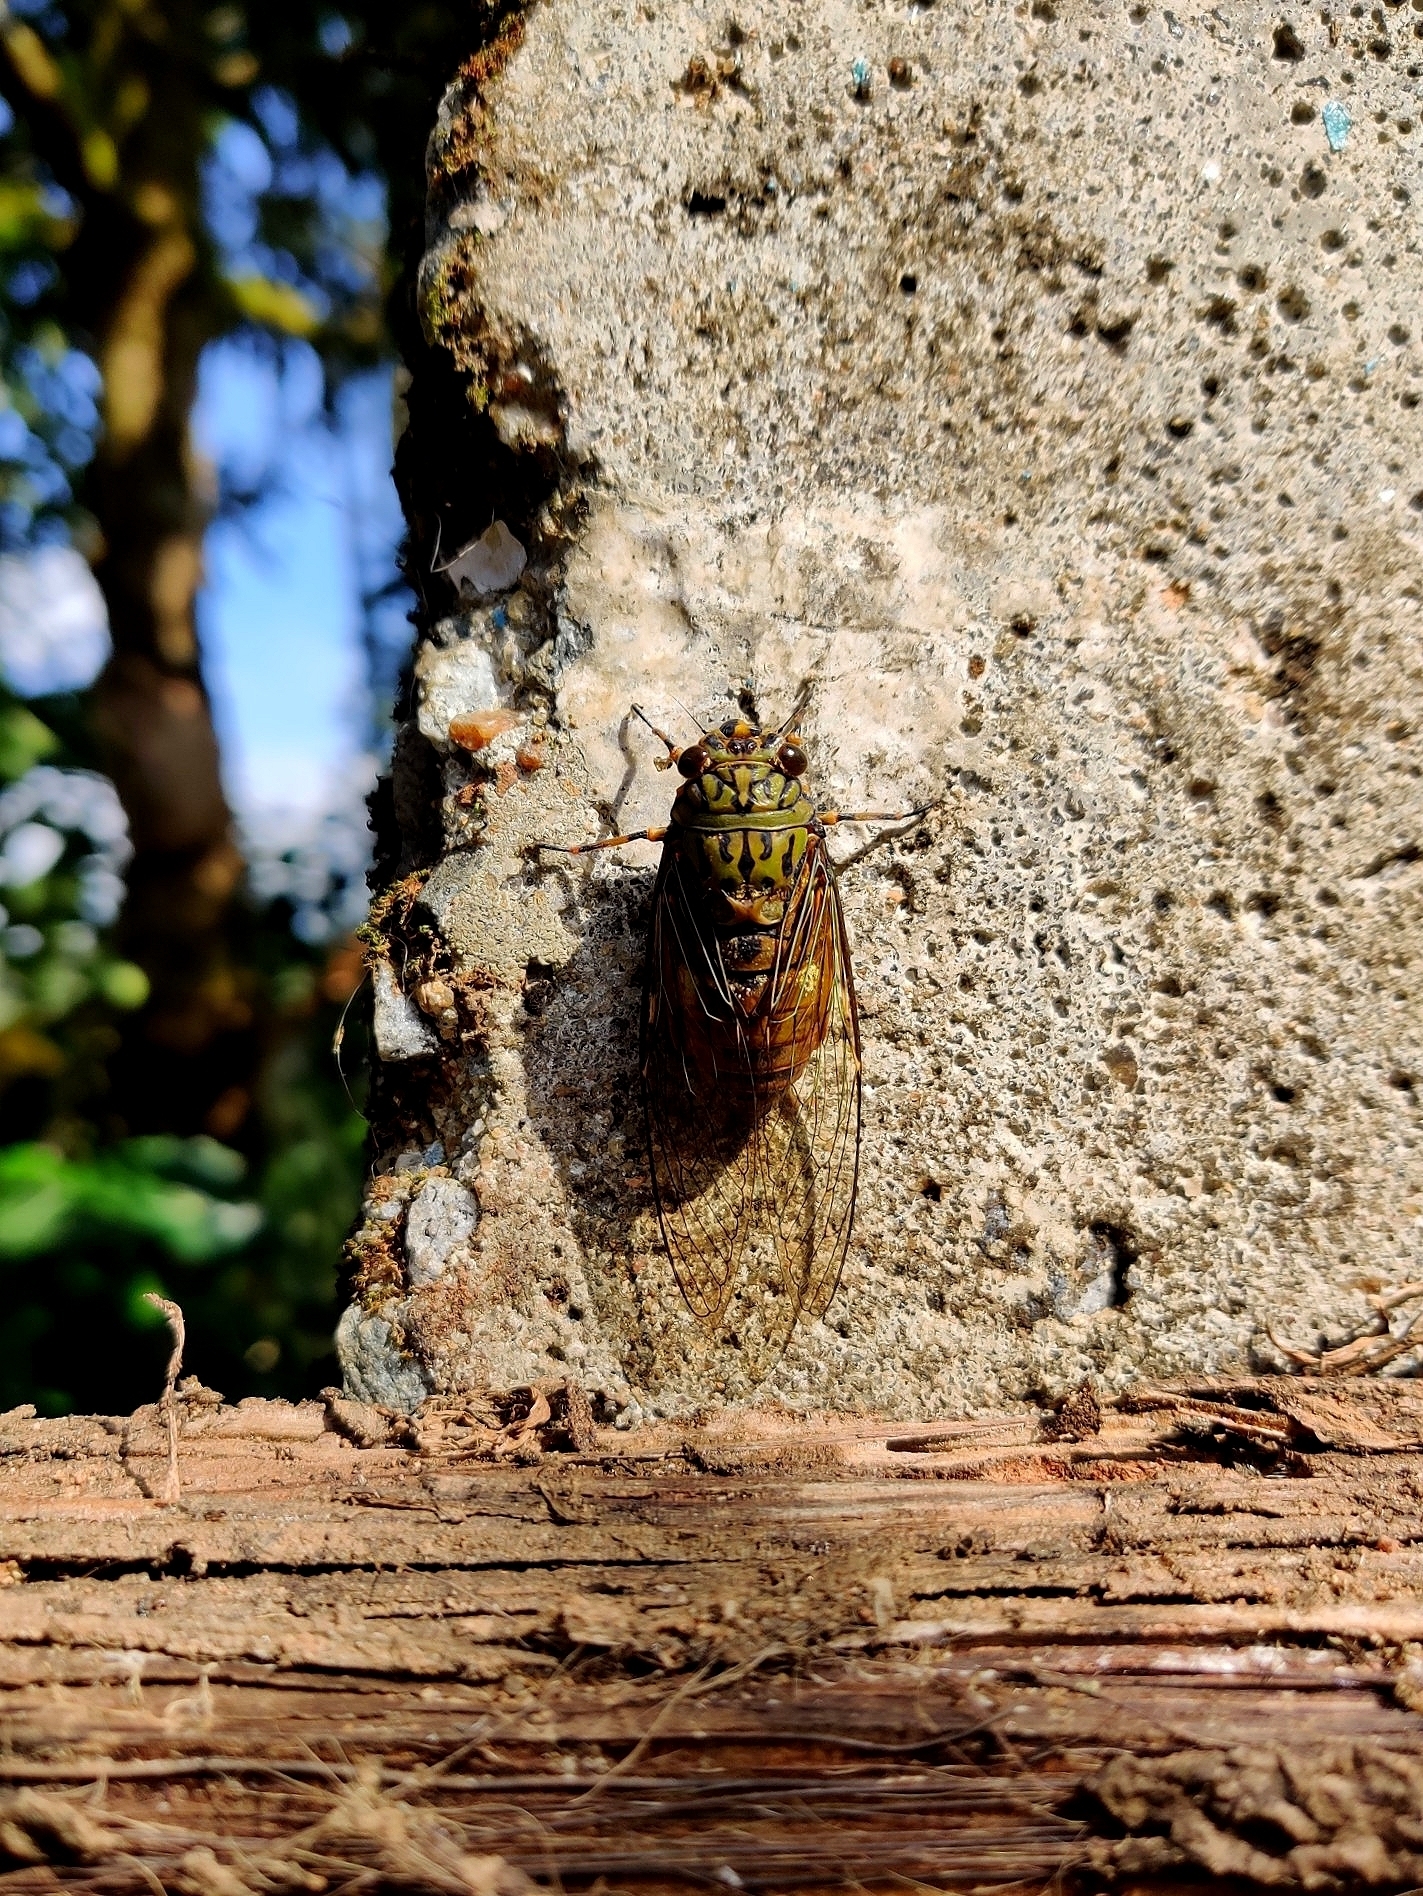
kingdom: Animalia
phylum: Arthropoda
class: Insecta
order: Hemiptera
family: Cicadidae
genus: Purana
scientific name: Purana tigrina
